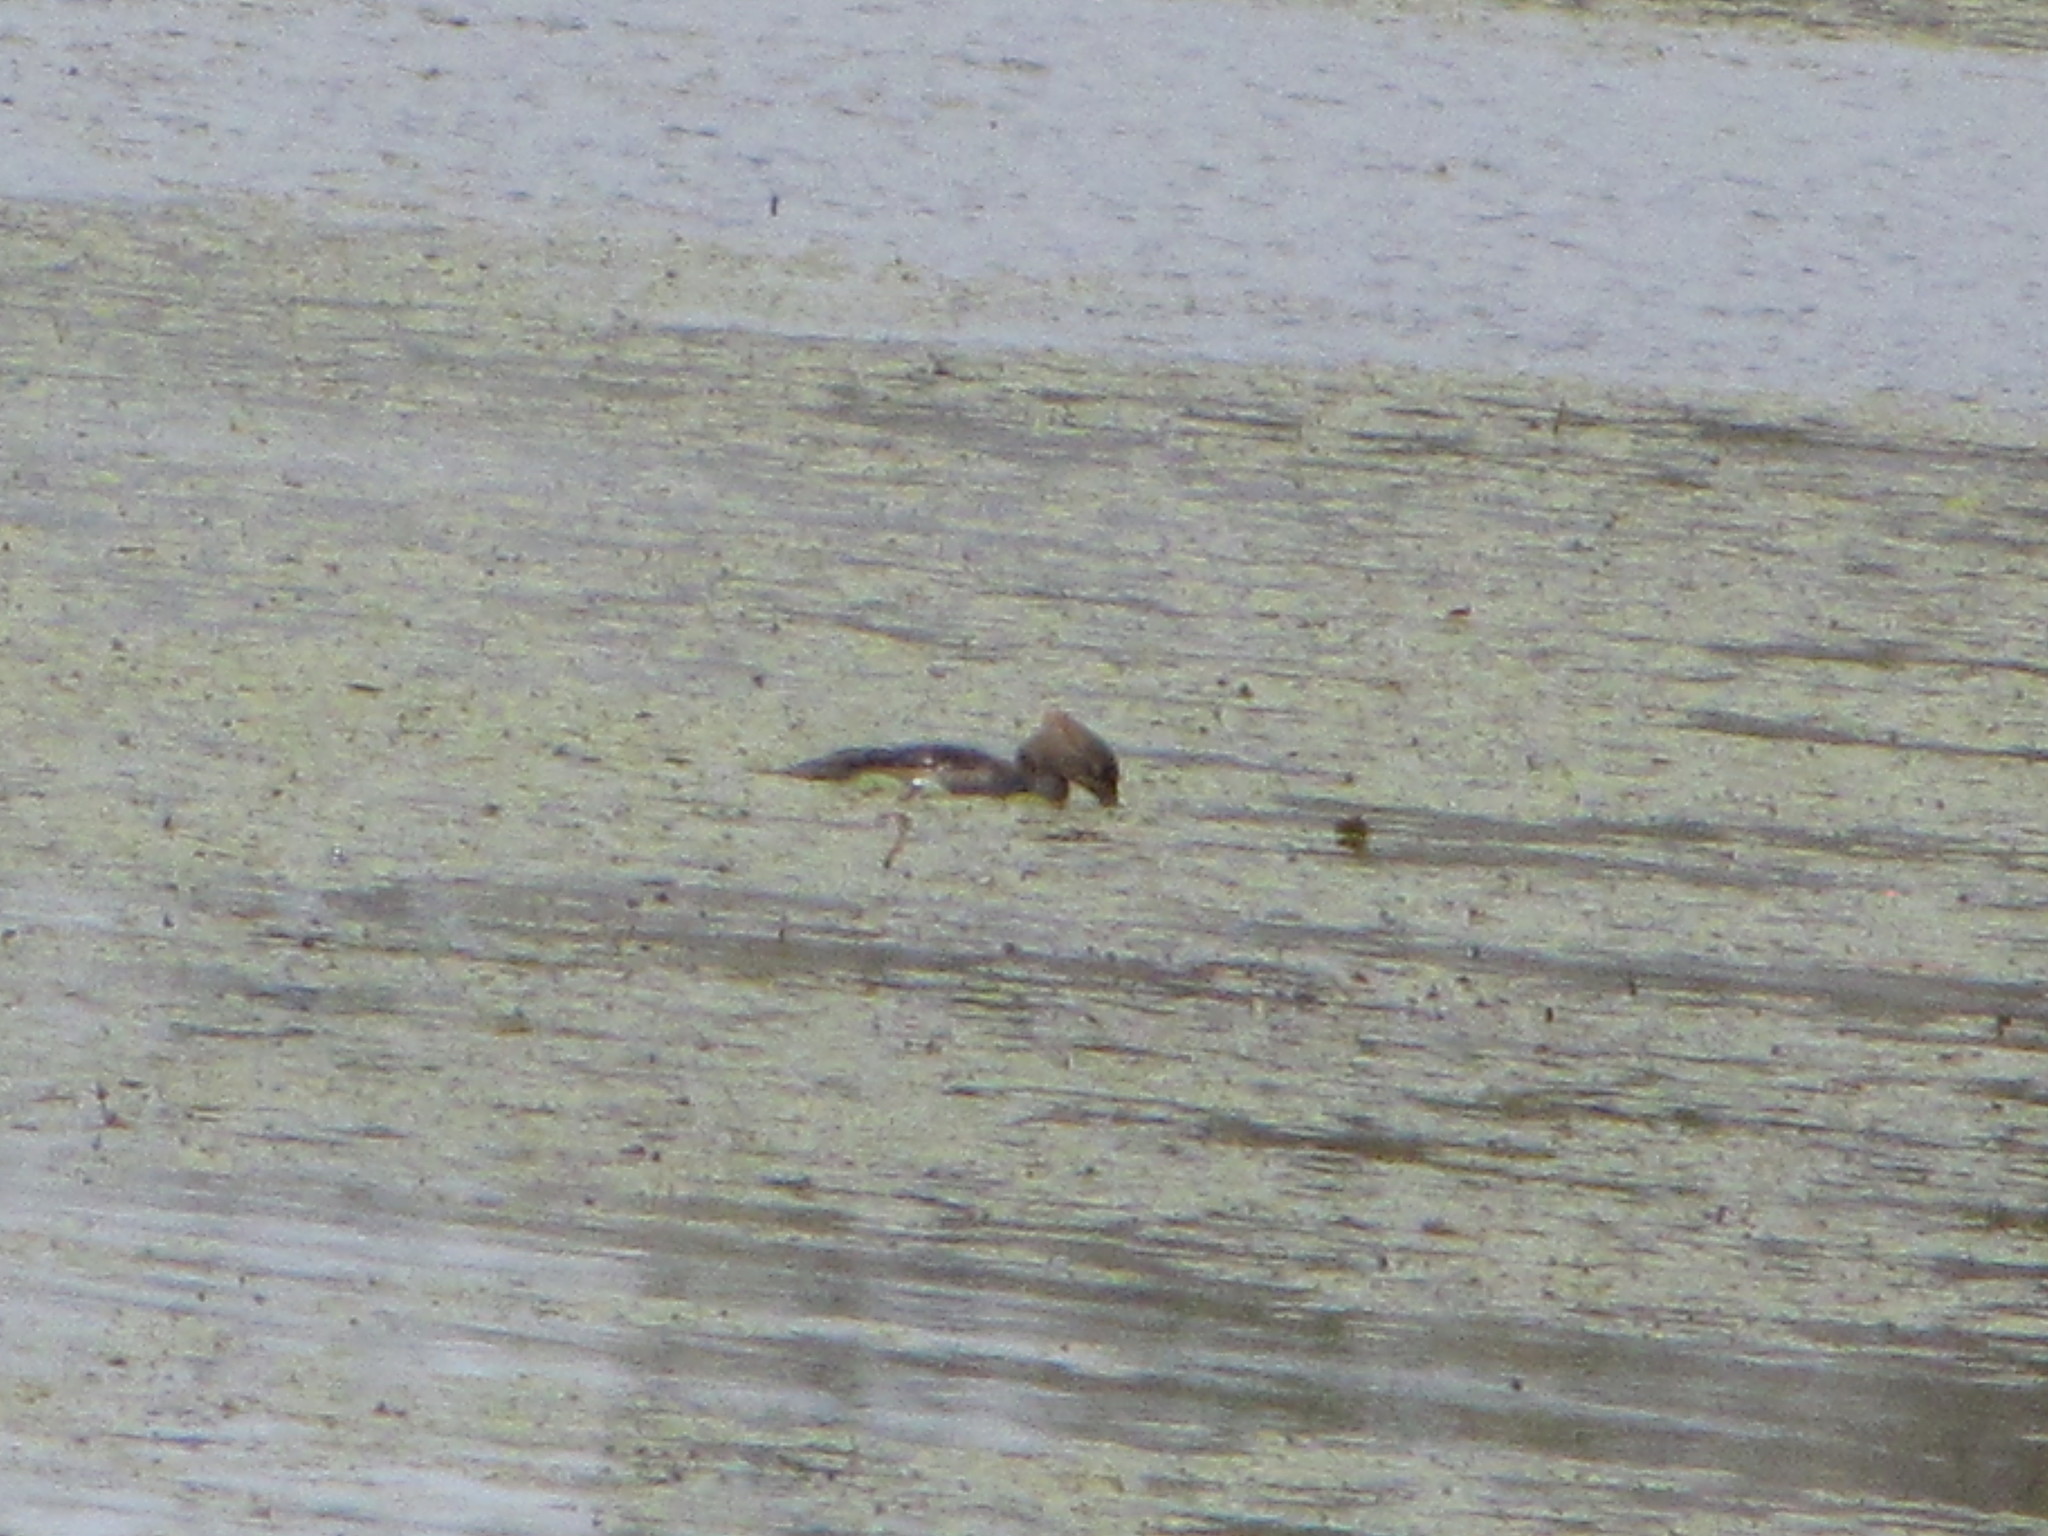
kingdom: Animalia
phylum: Chordata
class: Aves
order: Anseriformes
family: Anatidae
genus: Lophodytes
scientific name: Lophodytes cucullatus
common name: Hooded merganser
